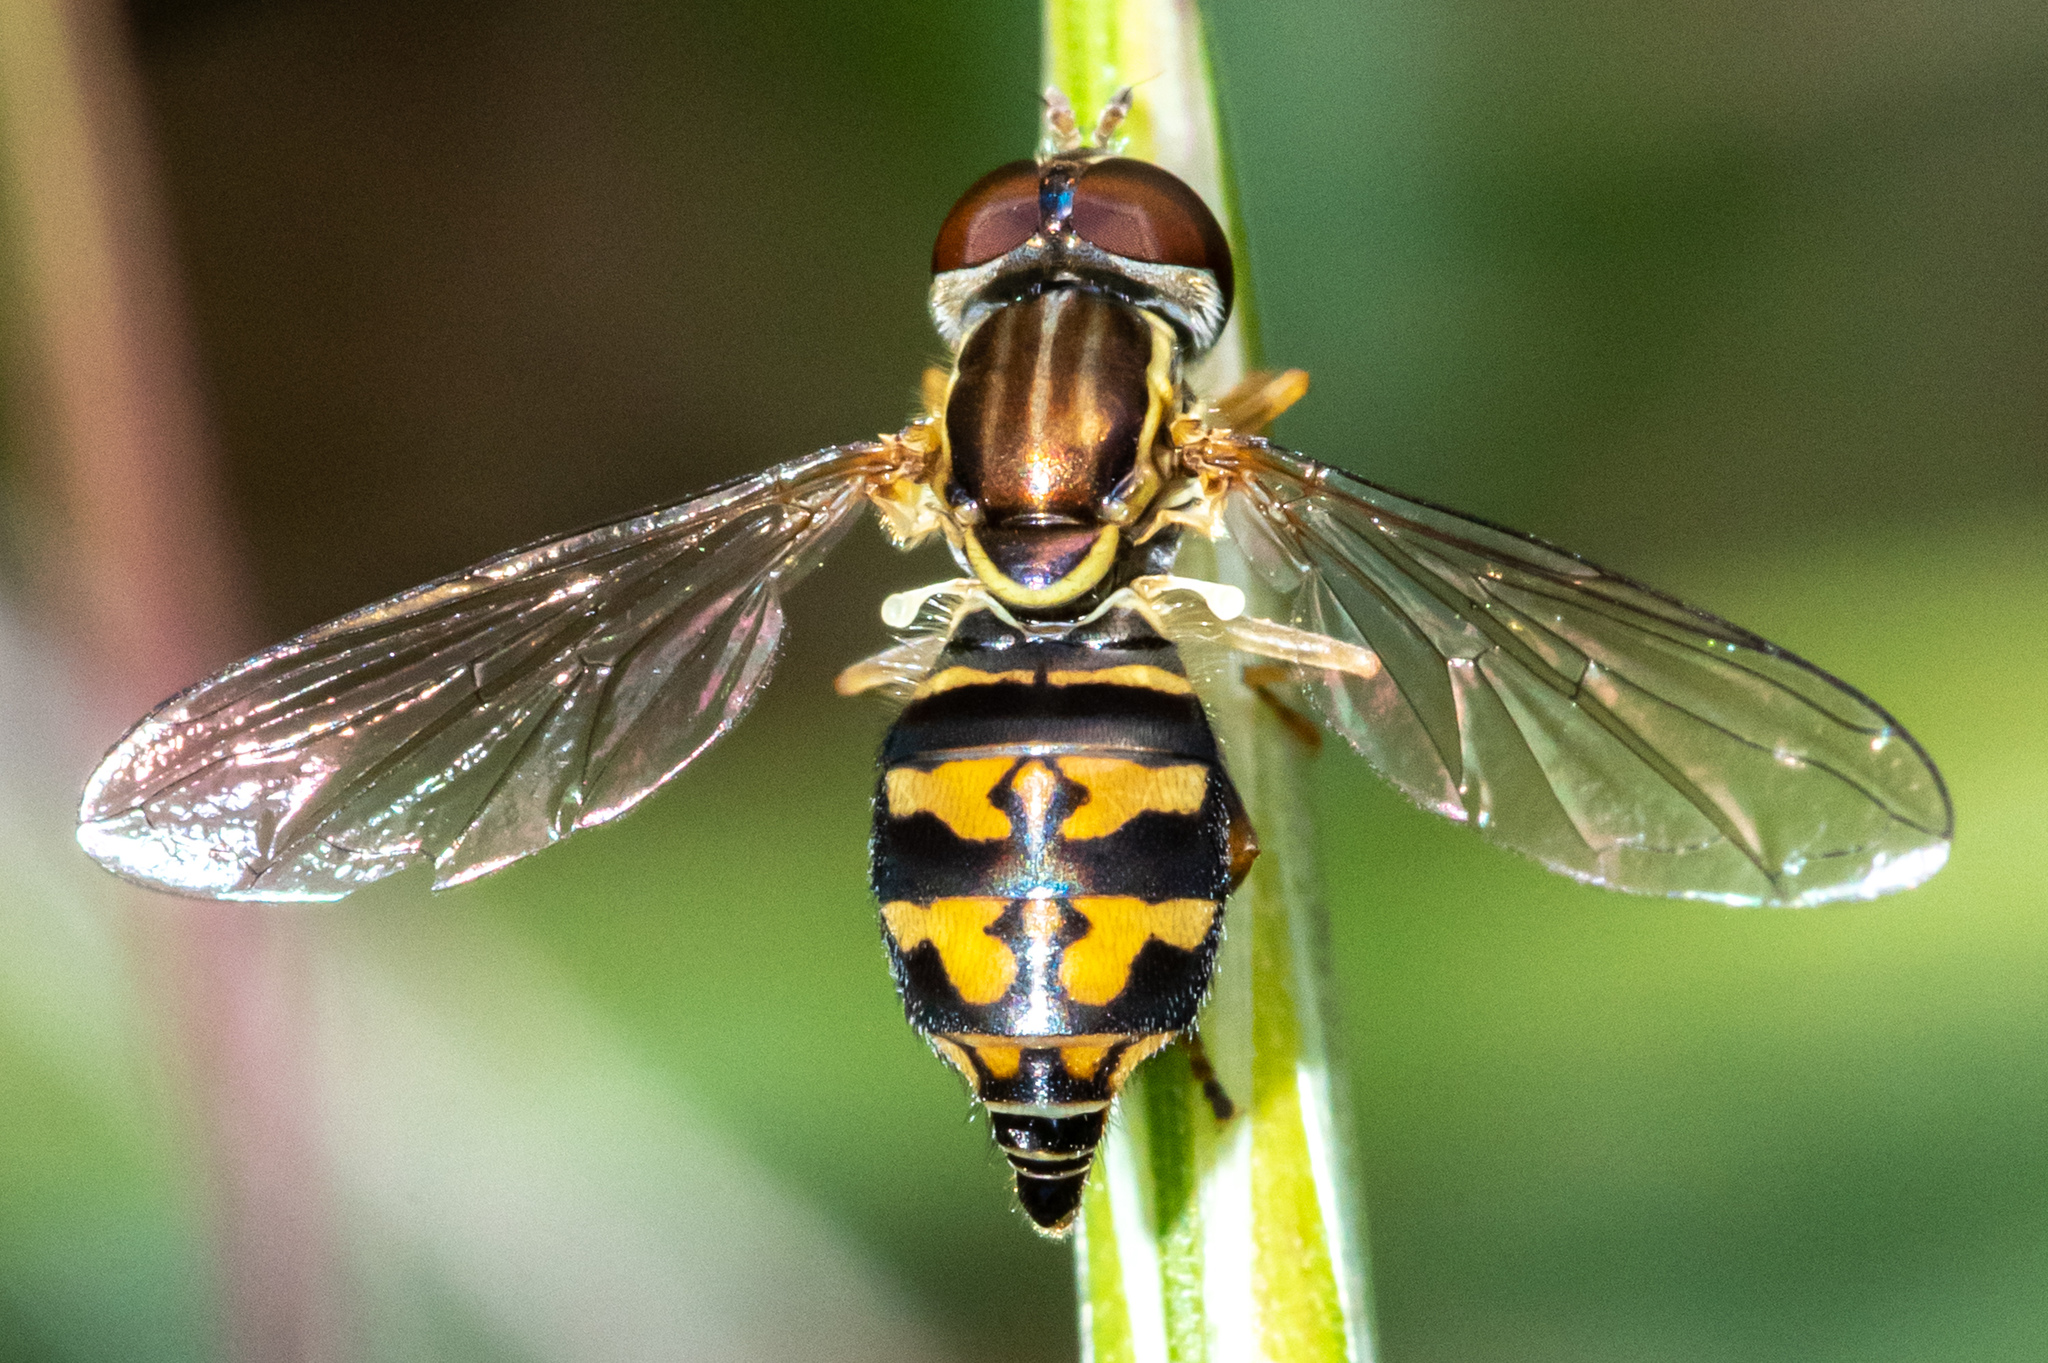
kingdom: Animalia
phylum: Arthropoda
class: Insecta
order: Diptera
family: Syrphidae
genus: Toxomerus
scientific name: Toxomerus occidentalis
